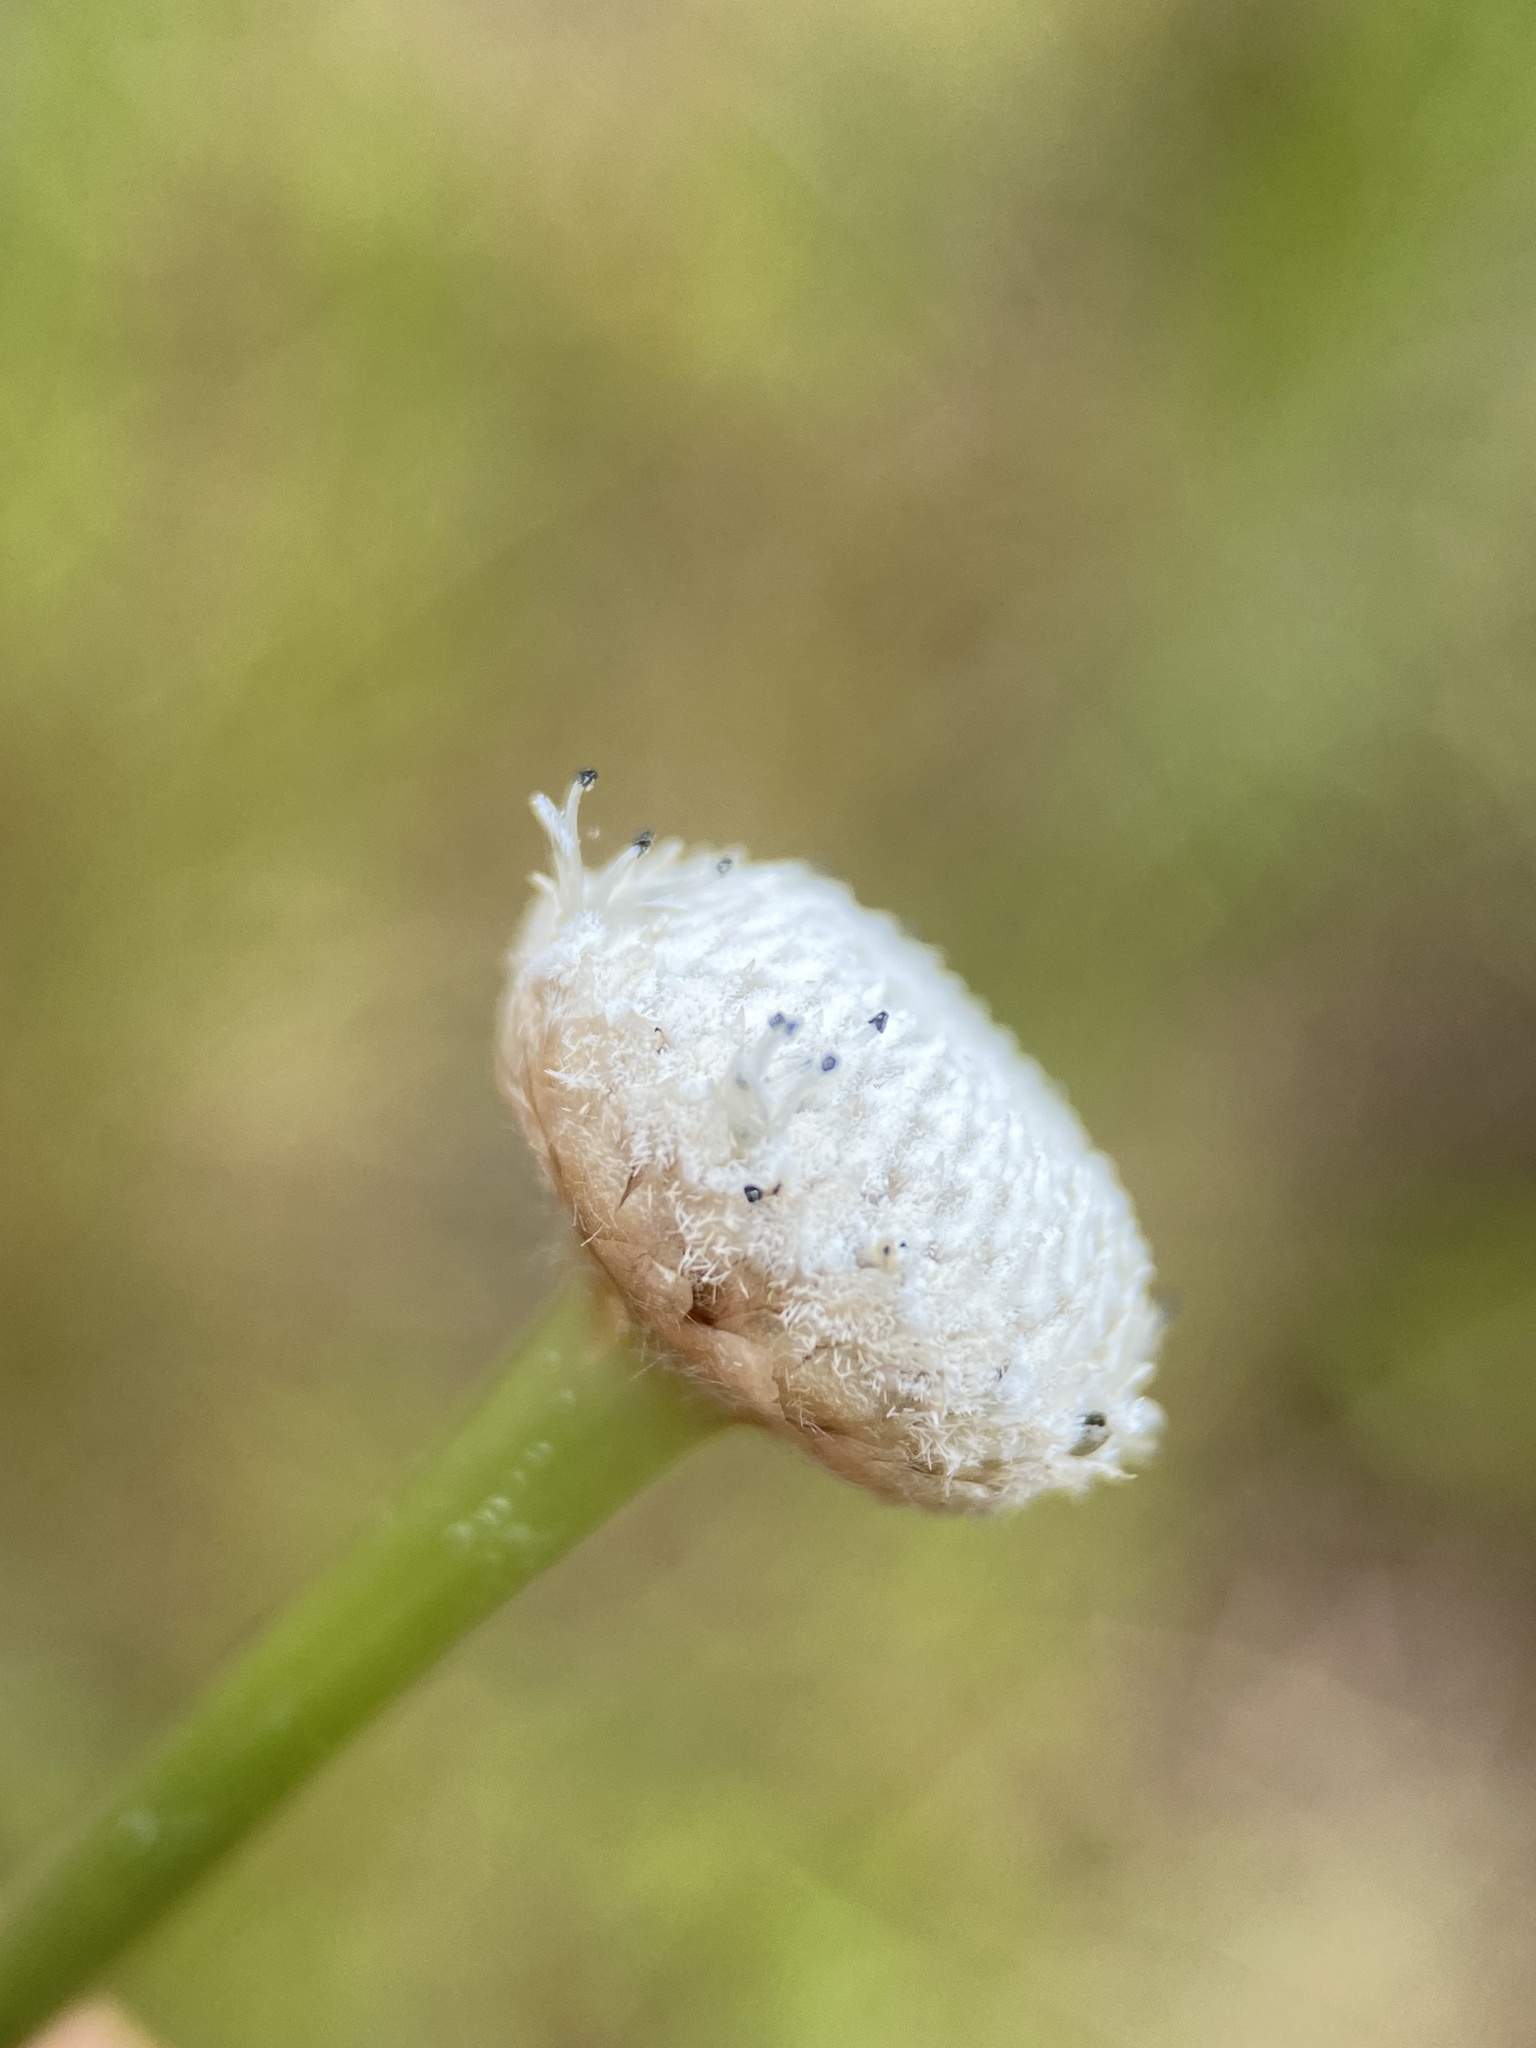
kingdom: Plantae
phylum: Tracheophyta
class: Liliopsida
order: Poales
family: Eriocaulaceae
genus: Eriocaulon
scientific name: Eriocaulon decangulare
